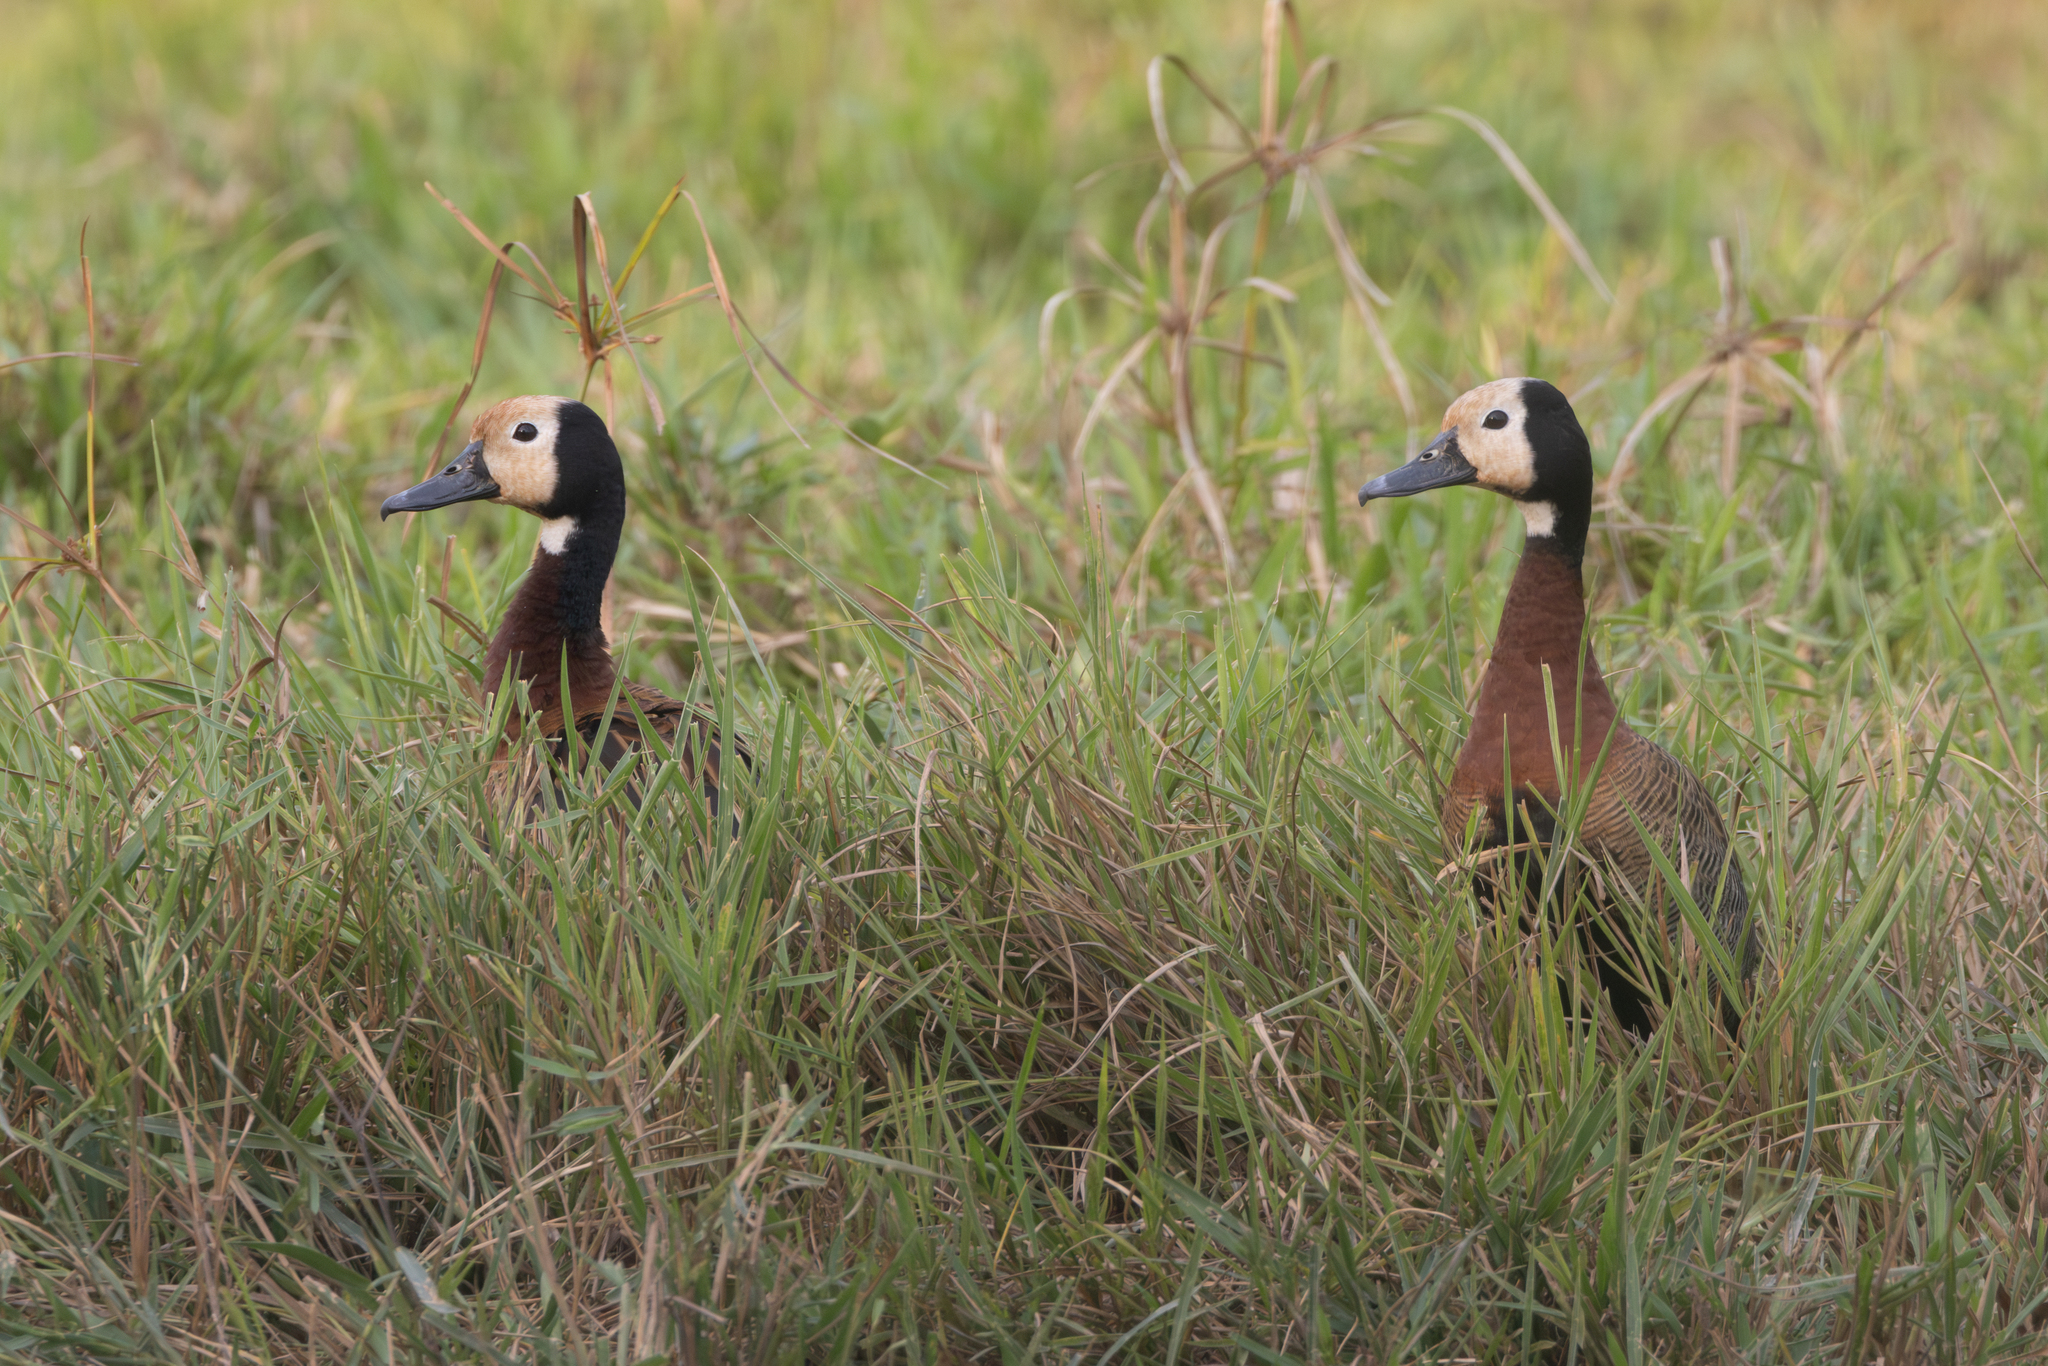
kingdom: Animalia
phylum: Chordata
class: Aves
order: Anseriformes
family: Anatidae
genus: Dendrocygna
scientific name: Dendrocygna viduata
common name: White-faced whistling duck
